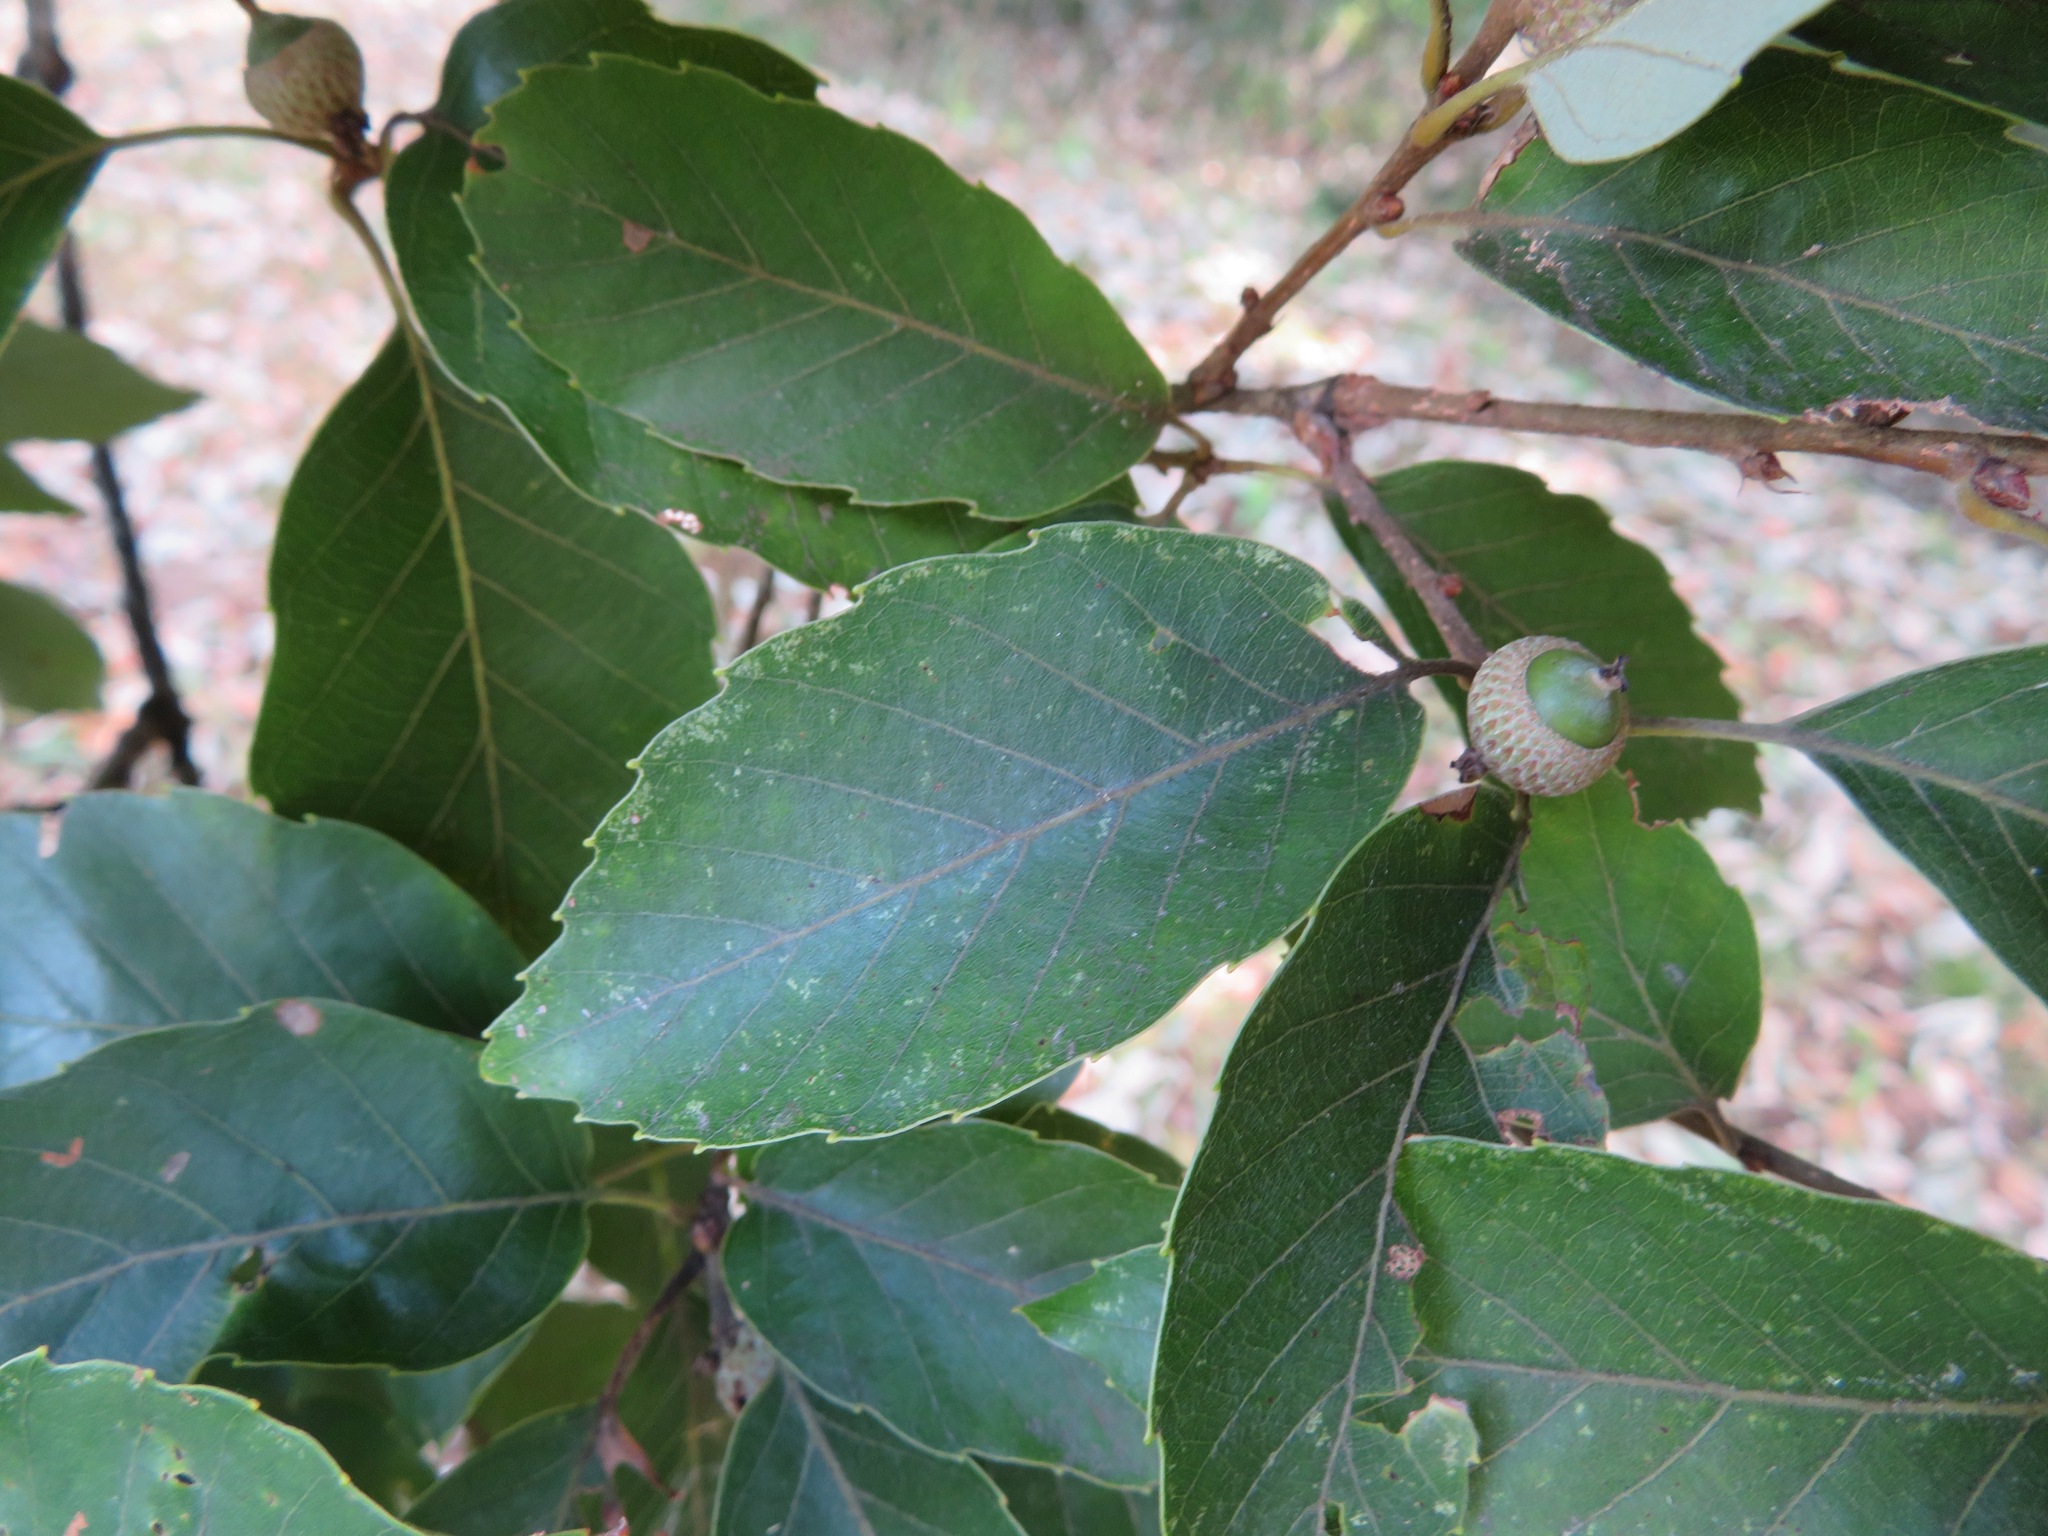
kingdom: Plantae
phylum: Tracheophyta
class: Magnoliopsida
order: Fagales
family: Fagaceae
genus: Quercus
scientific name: Quercus serrata
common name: Bao li
